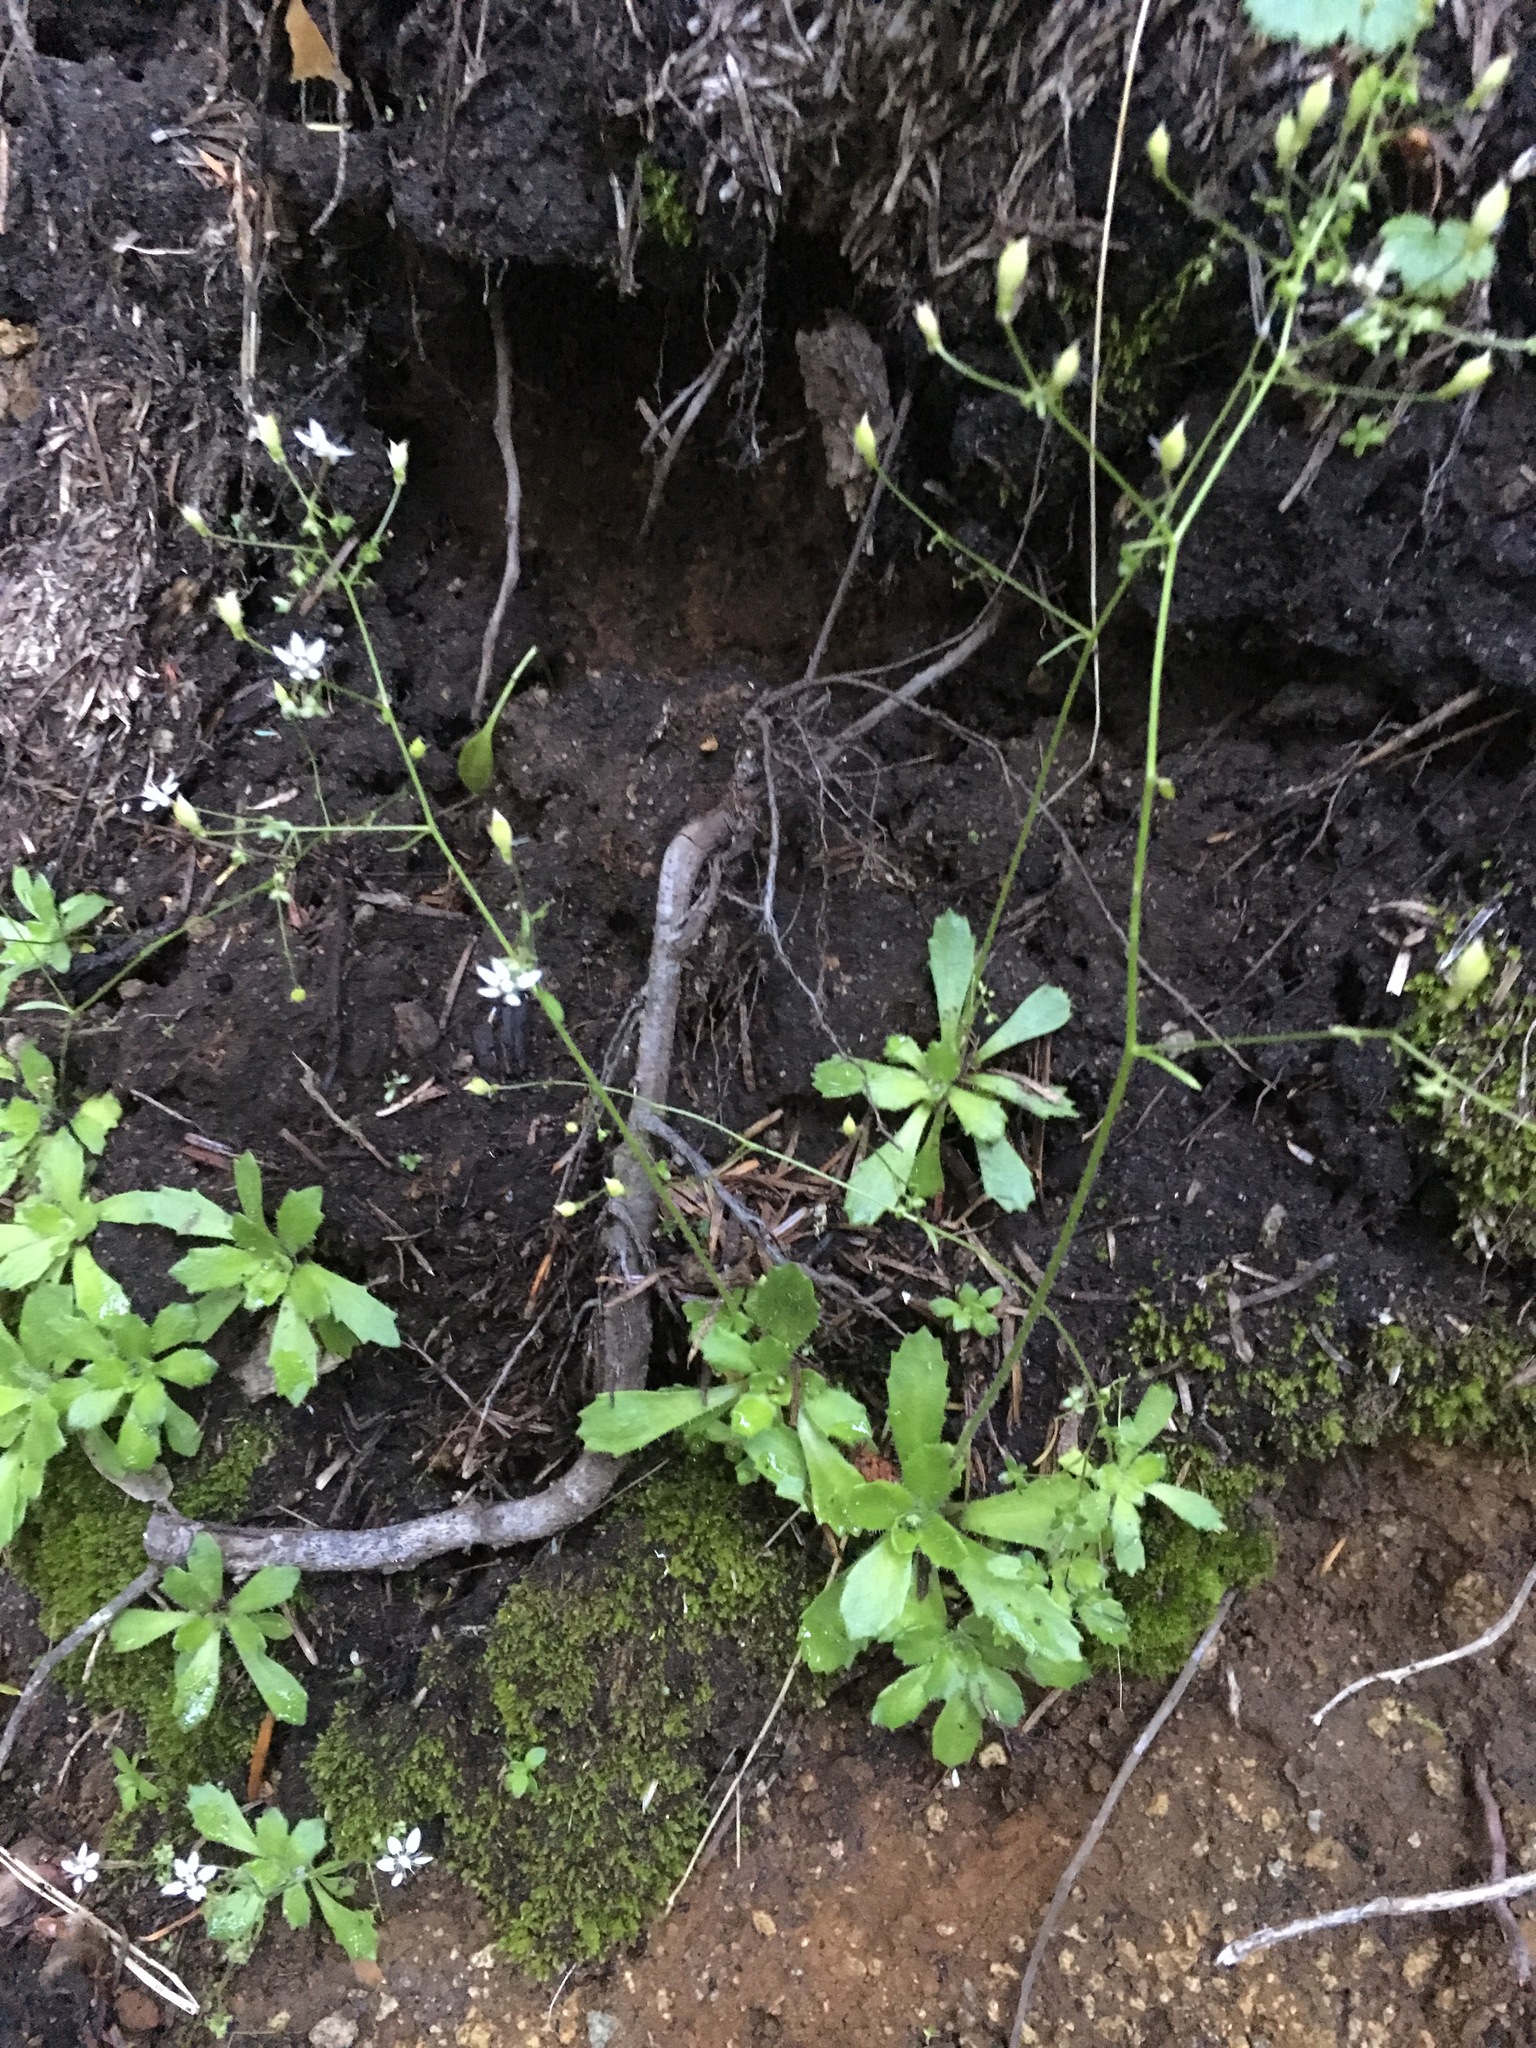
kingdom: Plantae
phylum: Tracheophyta
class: Magnoliopsida
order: Saxifragales
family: Saxifragaceae
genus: Micranthes
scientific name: Micranthes ferruginea
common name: Rusty saxifrage
